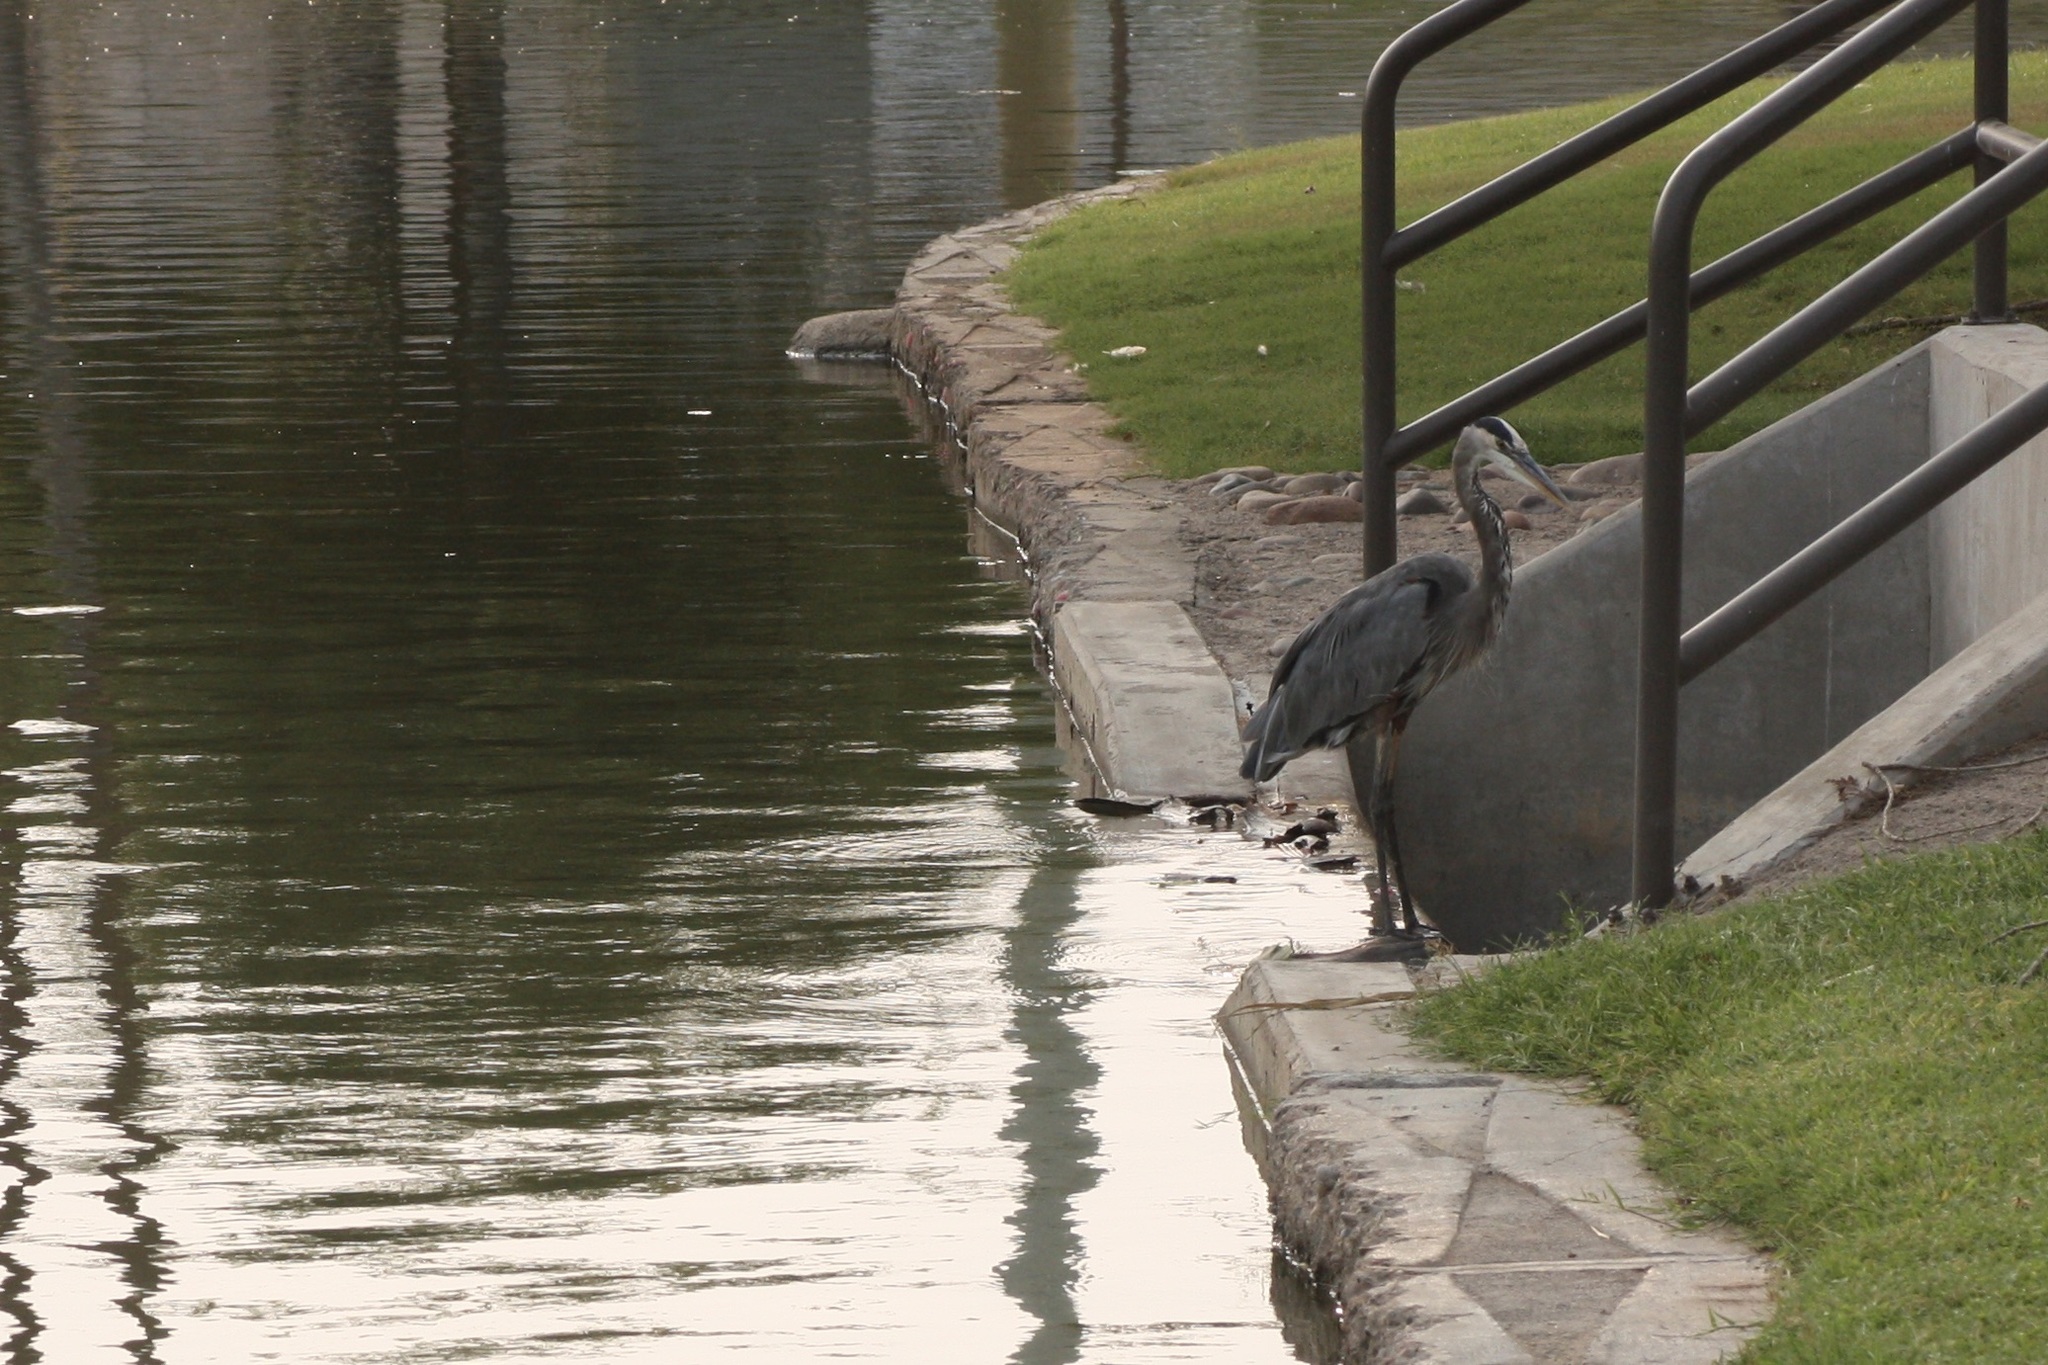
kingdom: Animalia
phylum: Chordata
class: Aves
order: Pelecaniformes
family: Ardeidae
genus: Ardea
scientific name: Ardea herodias
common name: Great blue heron
